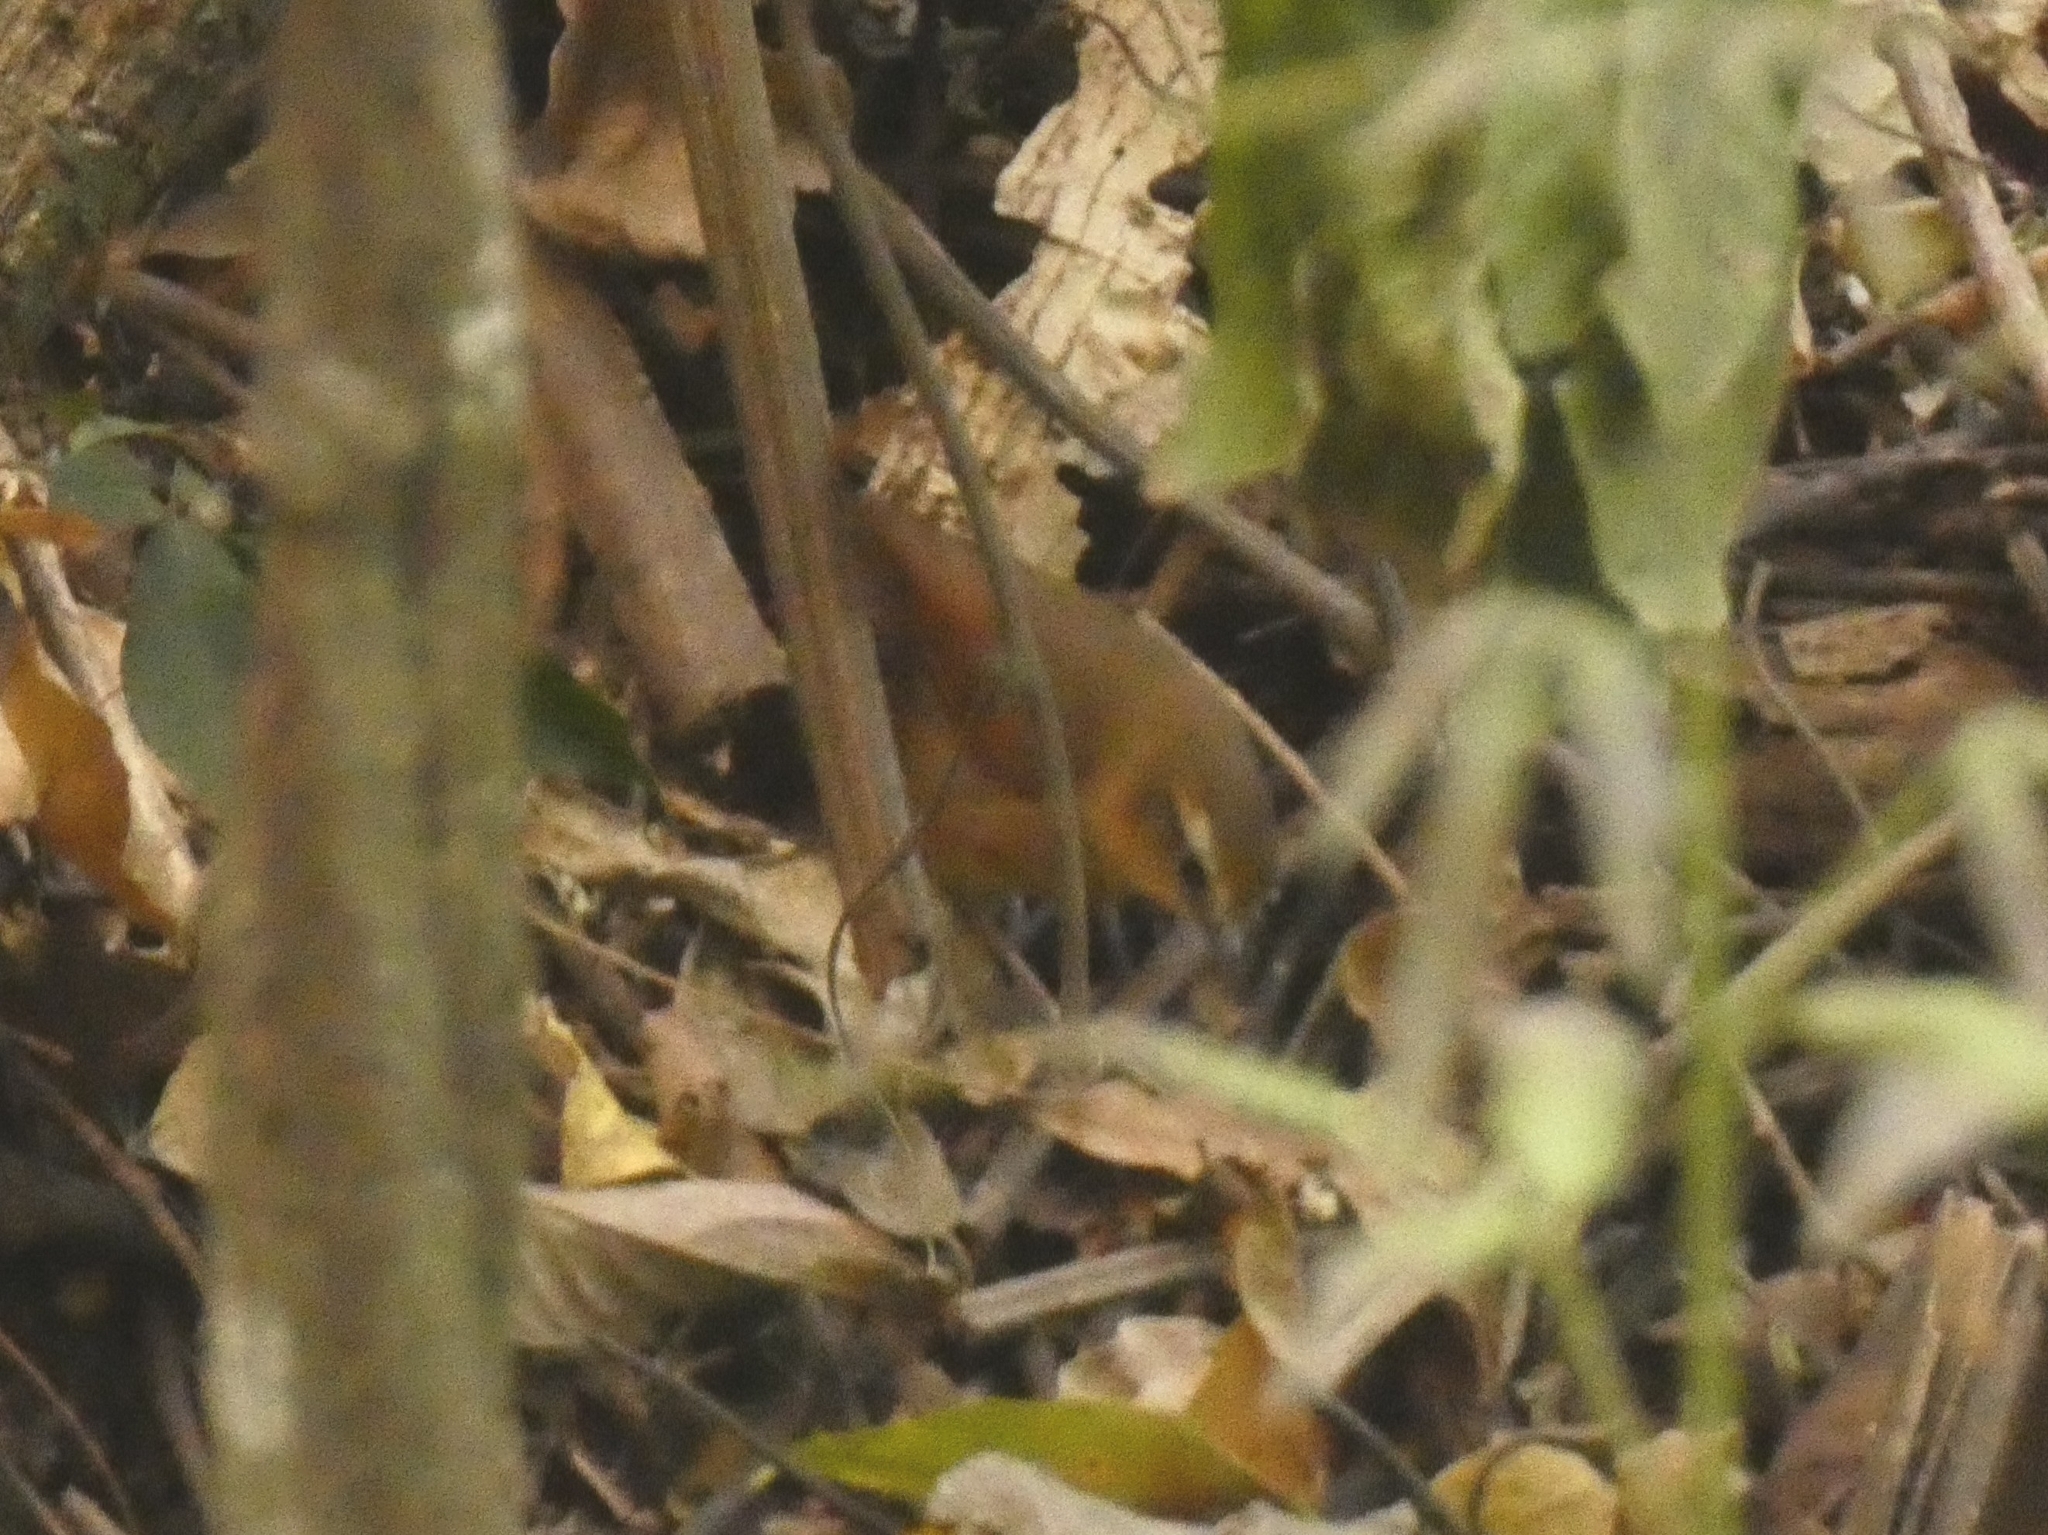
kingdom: Animalia
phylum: Chordata
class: Aves
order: Passeriformes
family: Troglodytidae
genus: Troglodytes
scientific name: Troglodytes solstitialis
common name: Mountain wren
